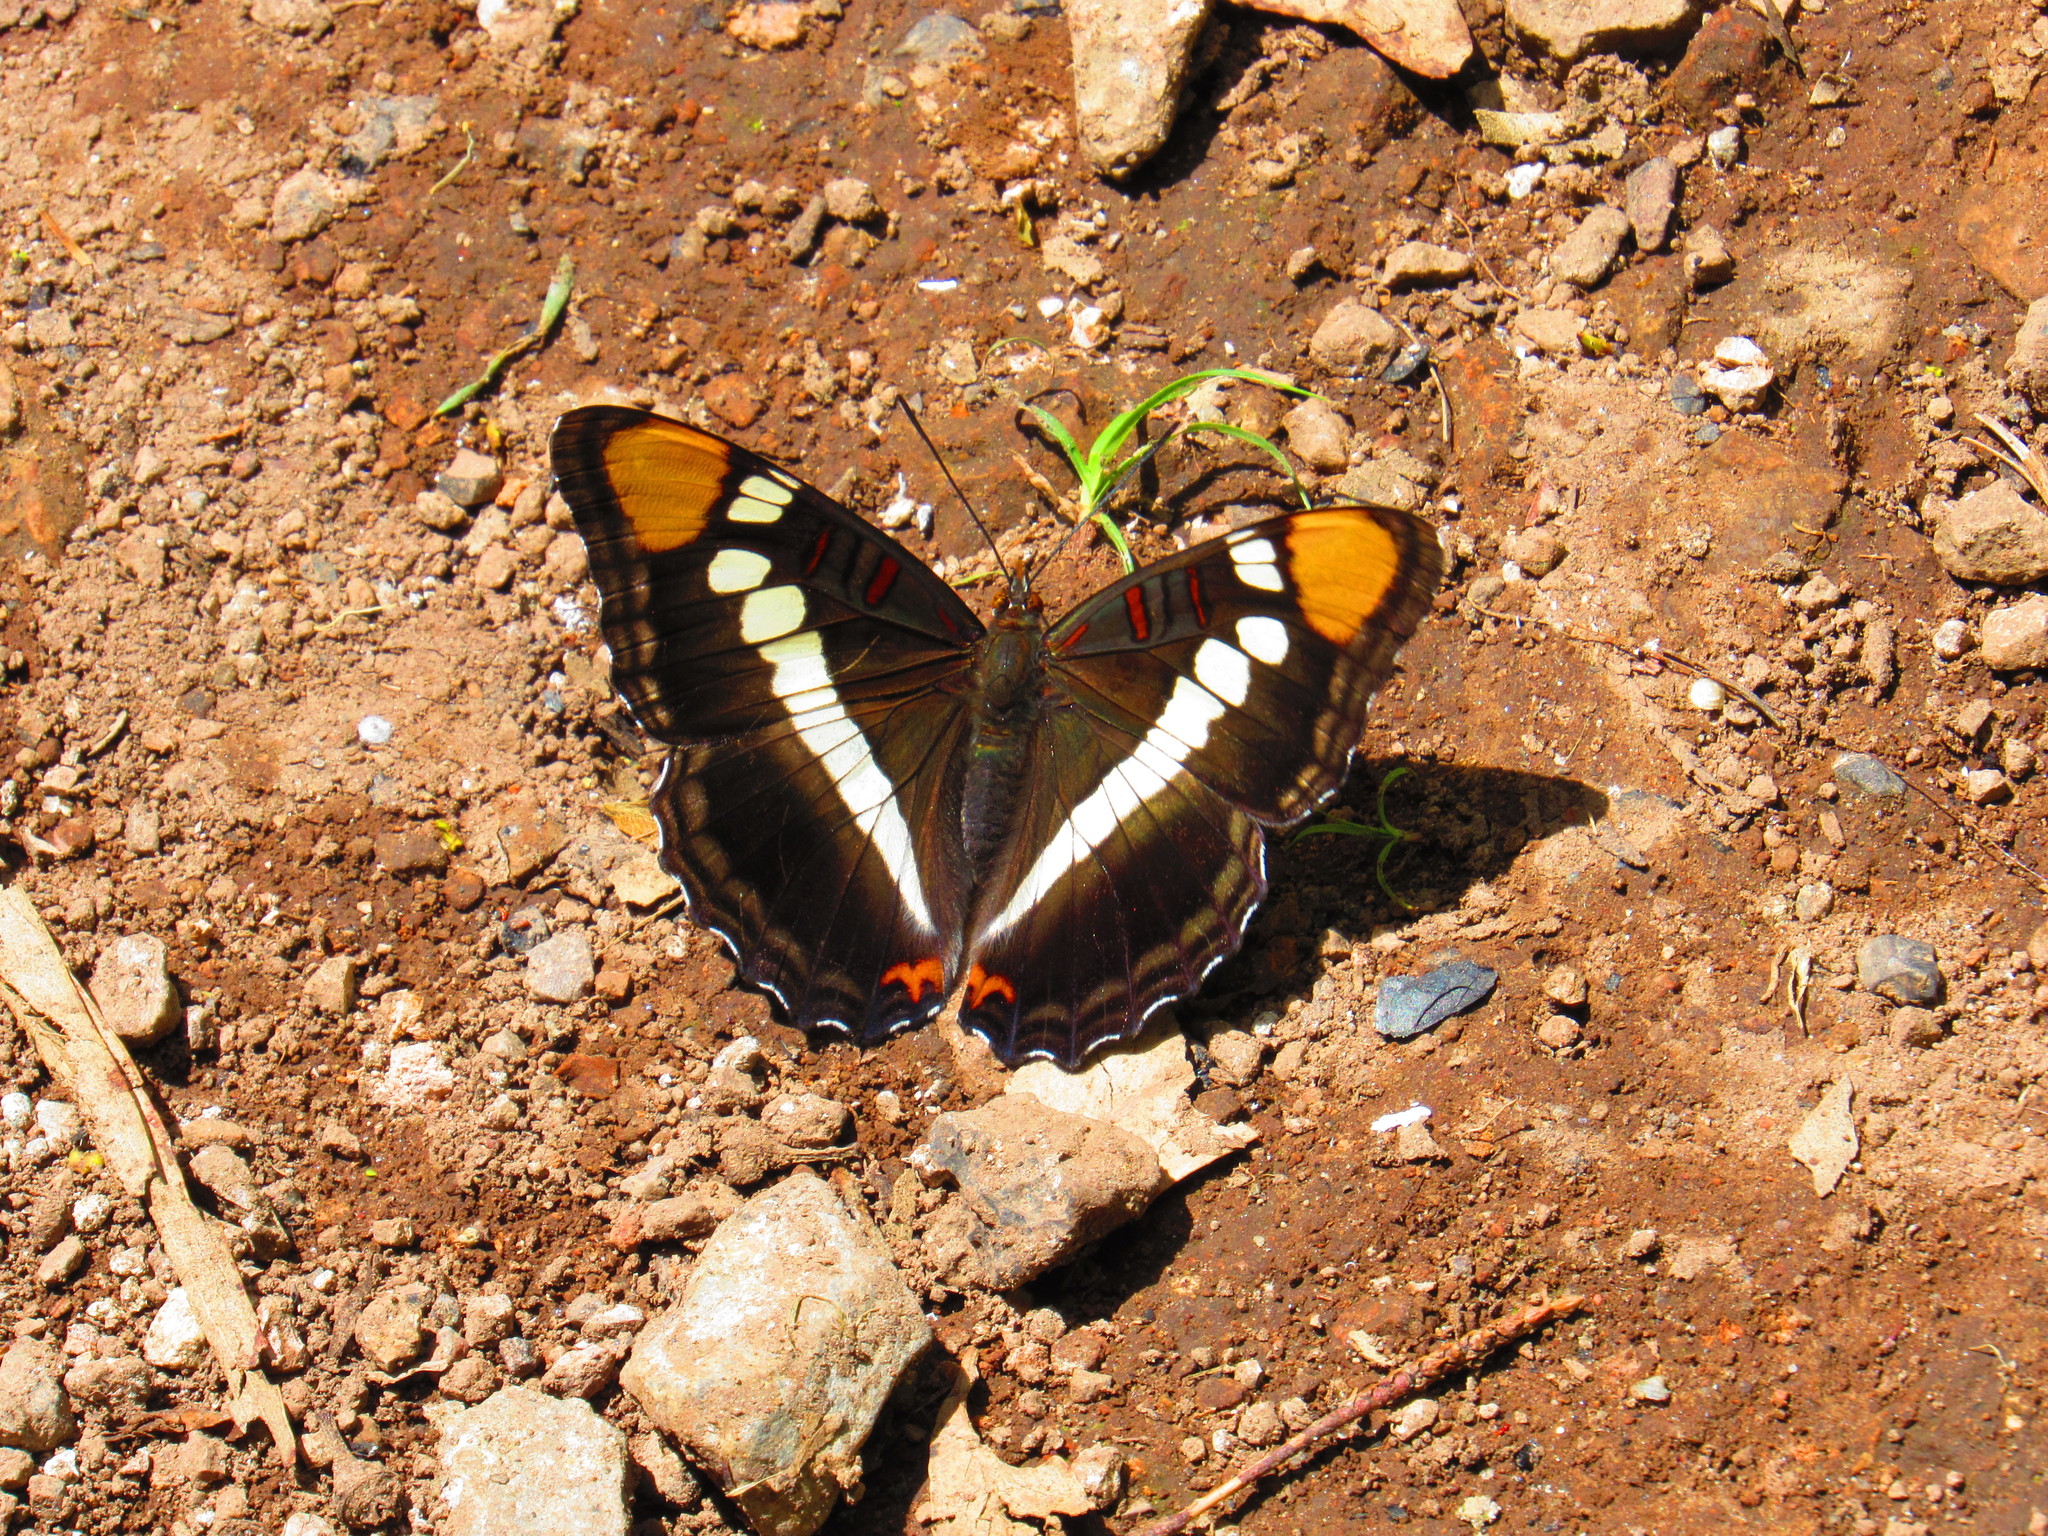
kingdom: Animalia
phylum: Arthropoda
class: Insecta
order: Lepidoptera
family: Nymphalidae
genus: Limenitis
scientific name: Limenitis bredowii
